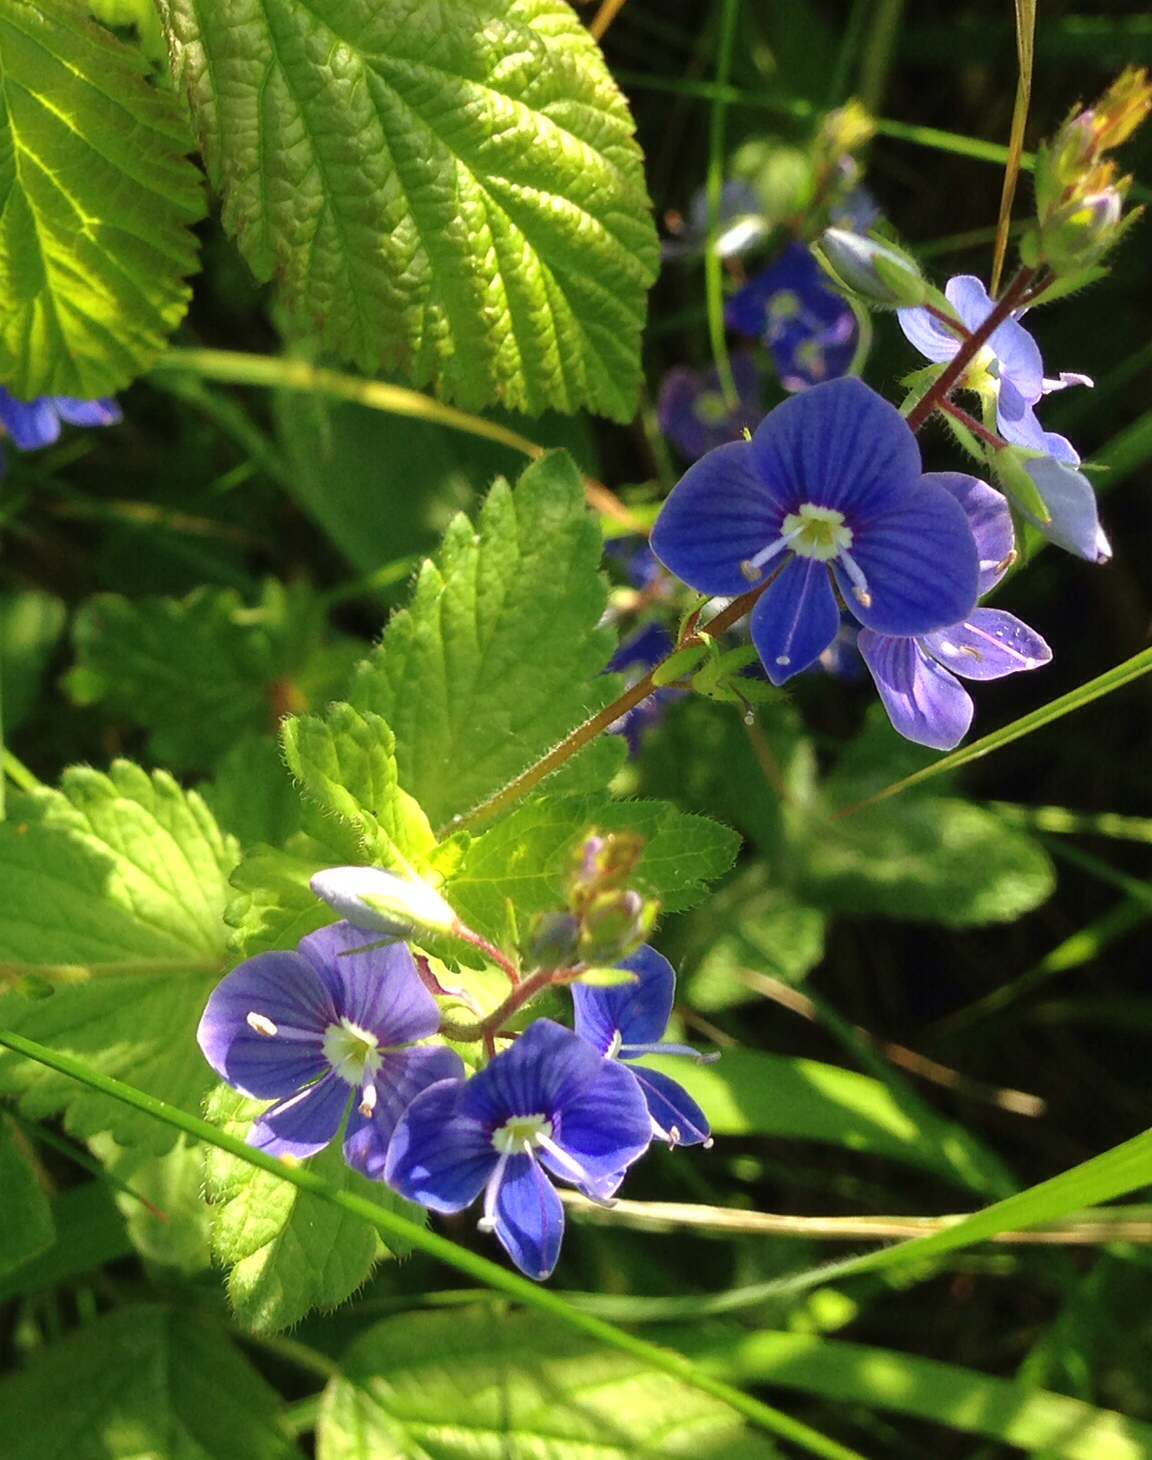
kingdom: Plantae
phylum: Tracheophyta
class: Magnoliopsida
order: Lamiales
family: Plantaginaceae
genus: Veronica
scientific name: Veronica chamaedrys
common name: Germander speedwell
